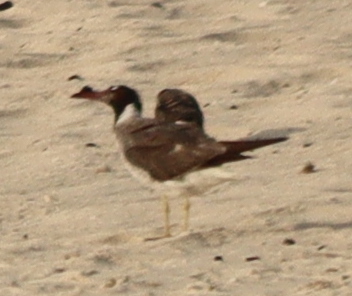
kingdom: Animalia
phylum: Chordata
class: Aves
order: Charadriiformes
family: Laridae
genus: Ichthyaetus
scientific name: Ichthyaetus leucophthalmus
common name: White-eyed gull
